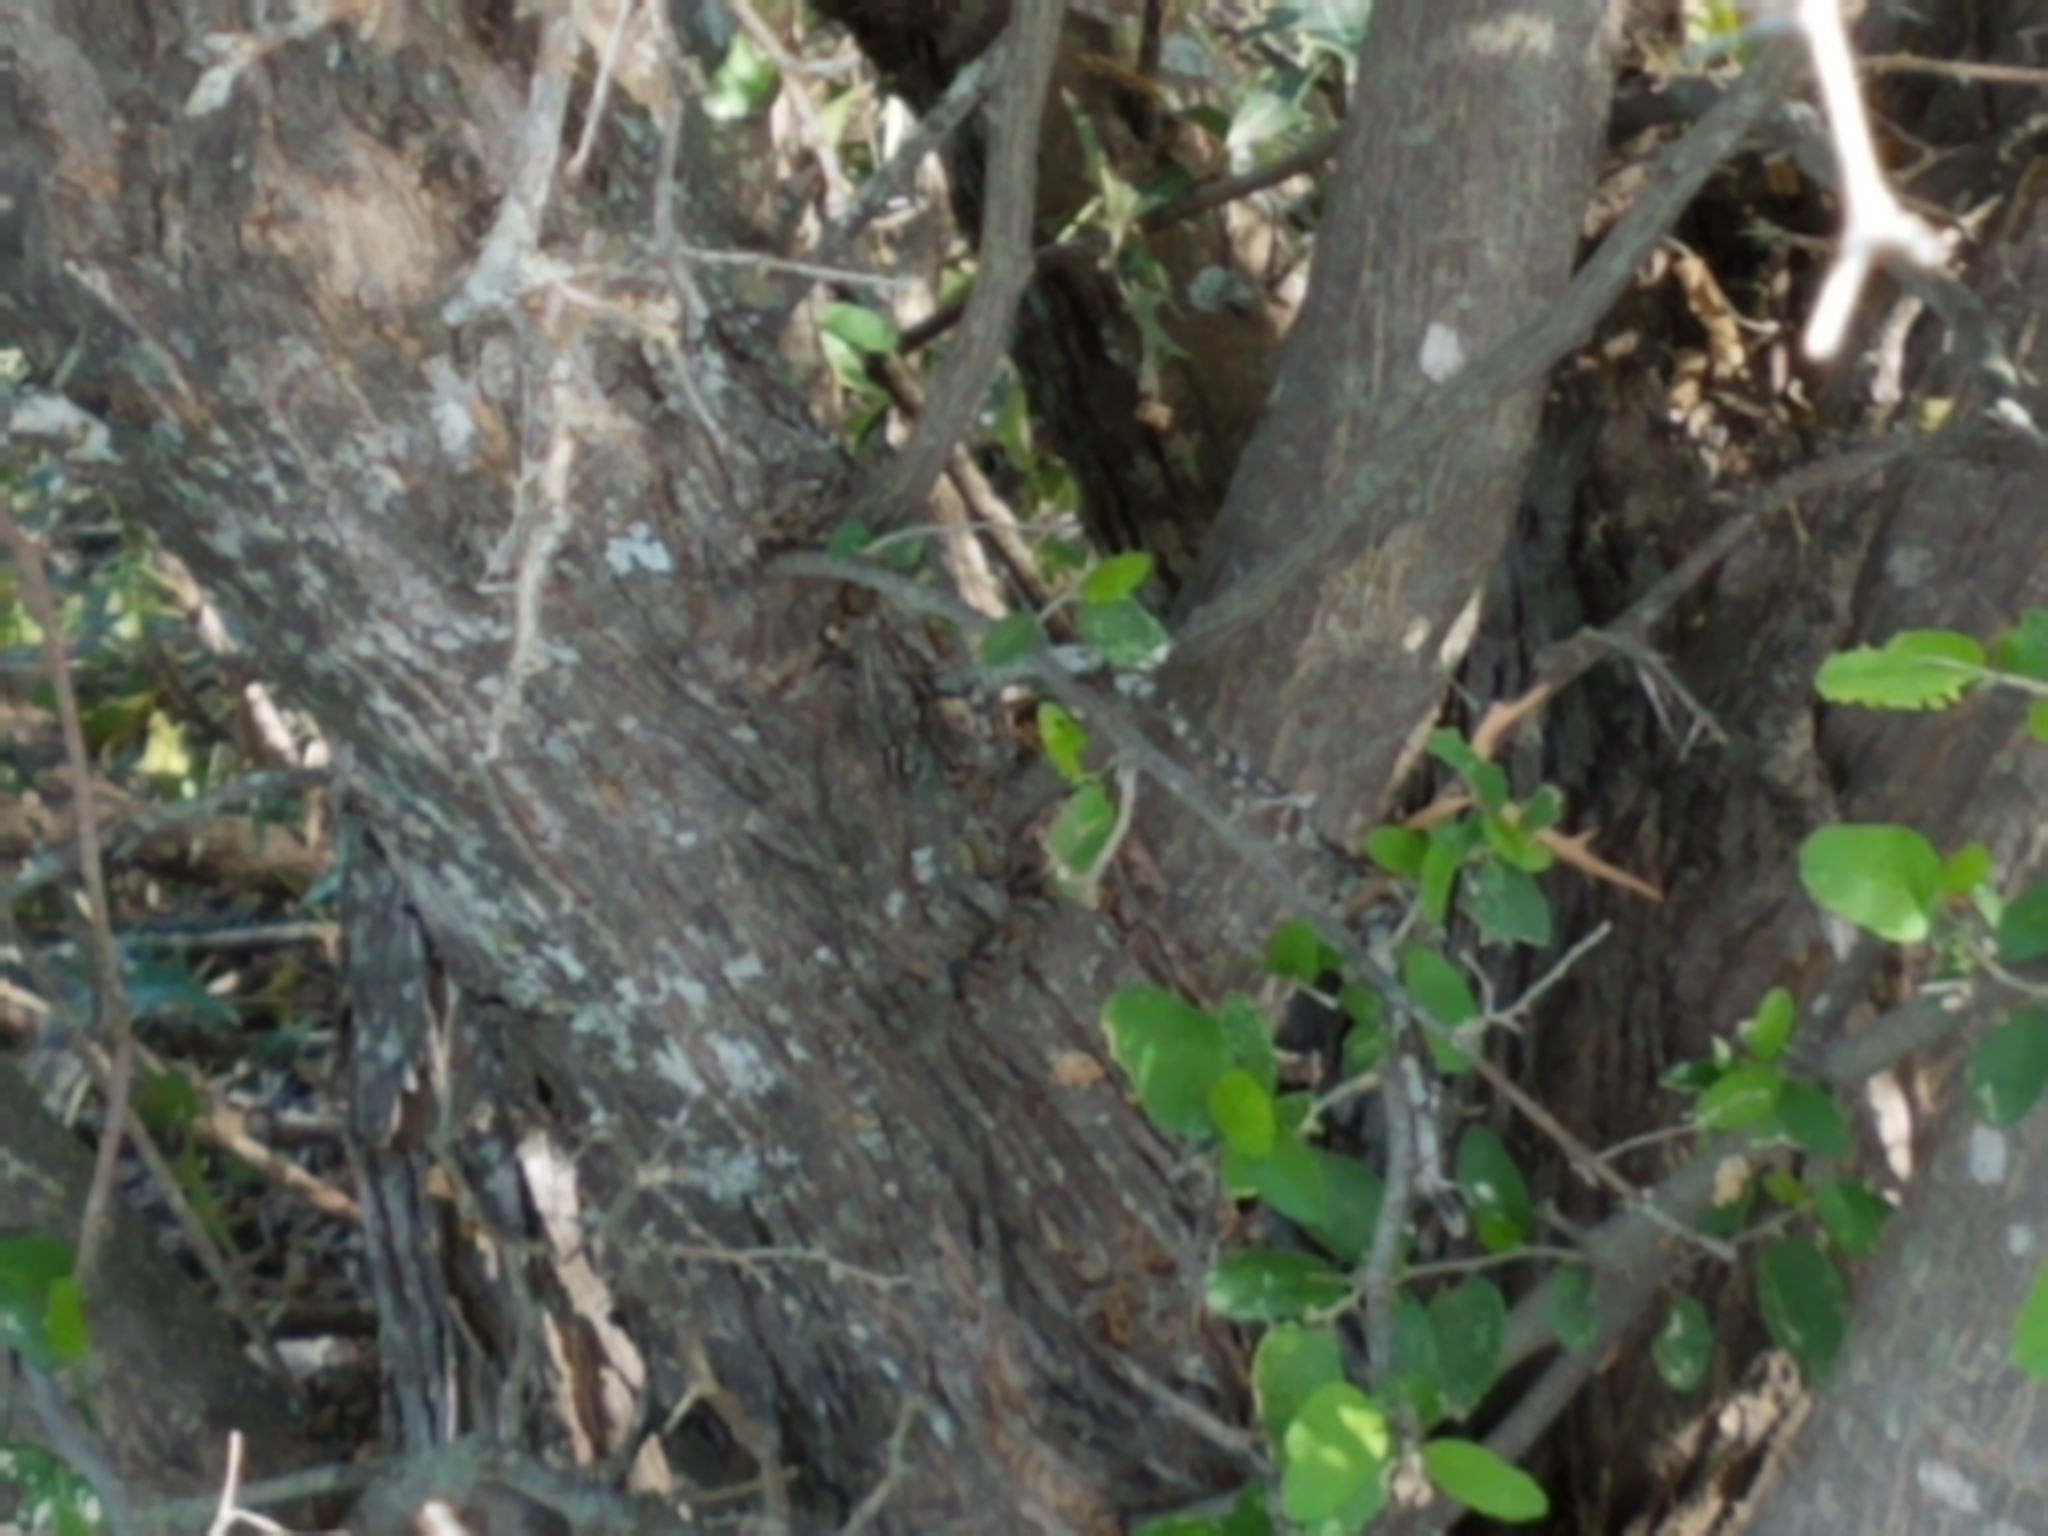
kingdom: Plantae
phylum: Tracheophyta
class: Magnoliopsida
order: Rosales
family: Cannabaceae
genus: Celtis
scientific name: Celtis pallida
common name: Desert hackberry
